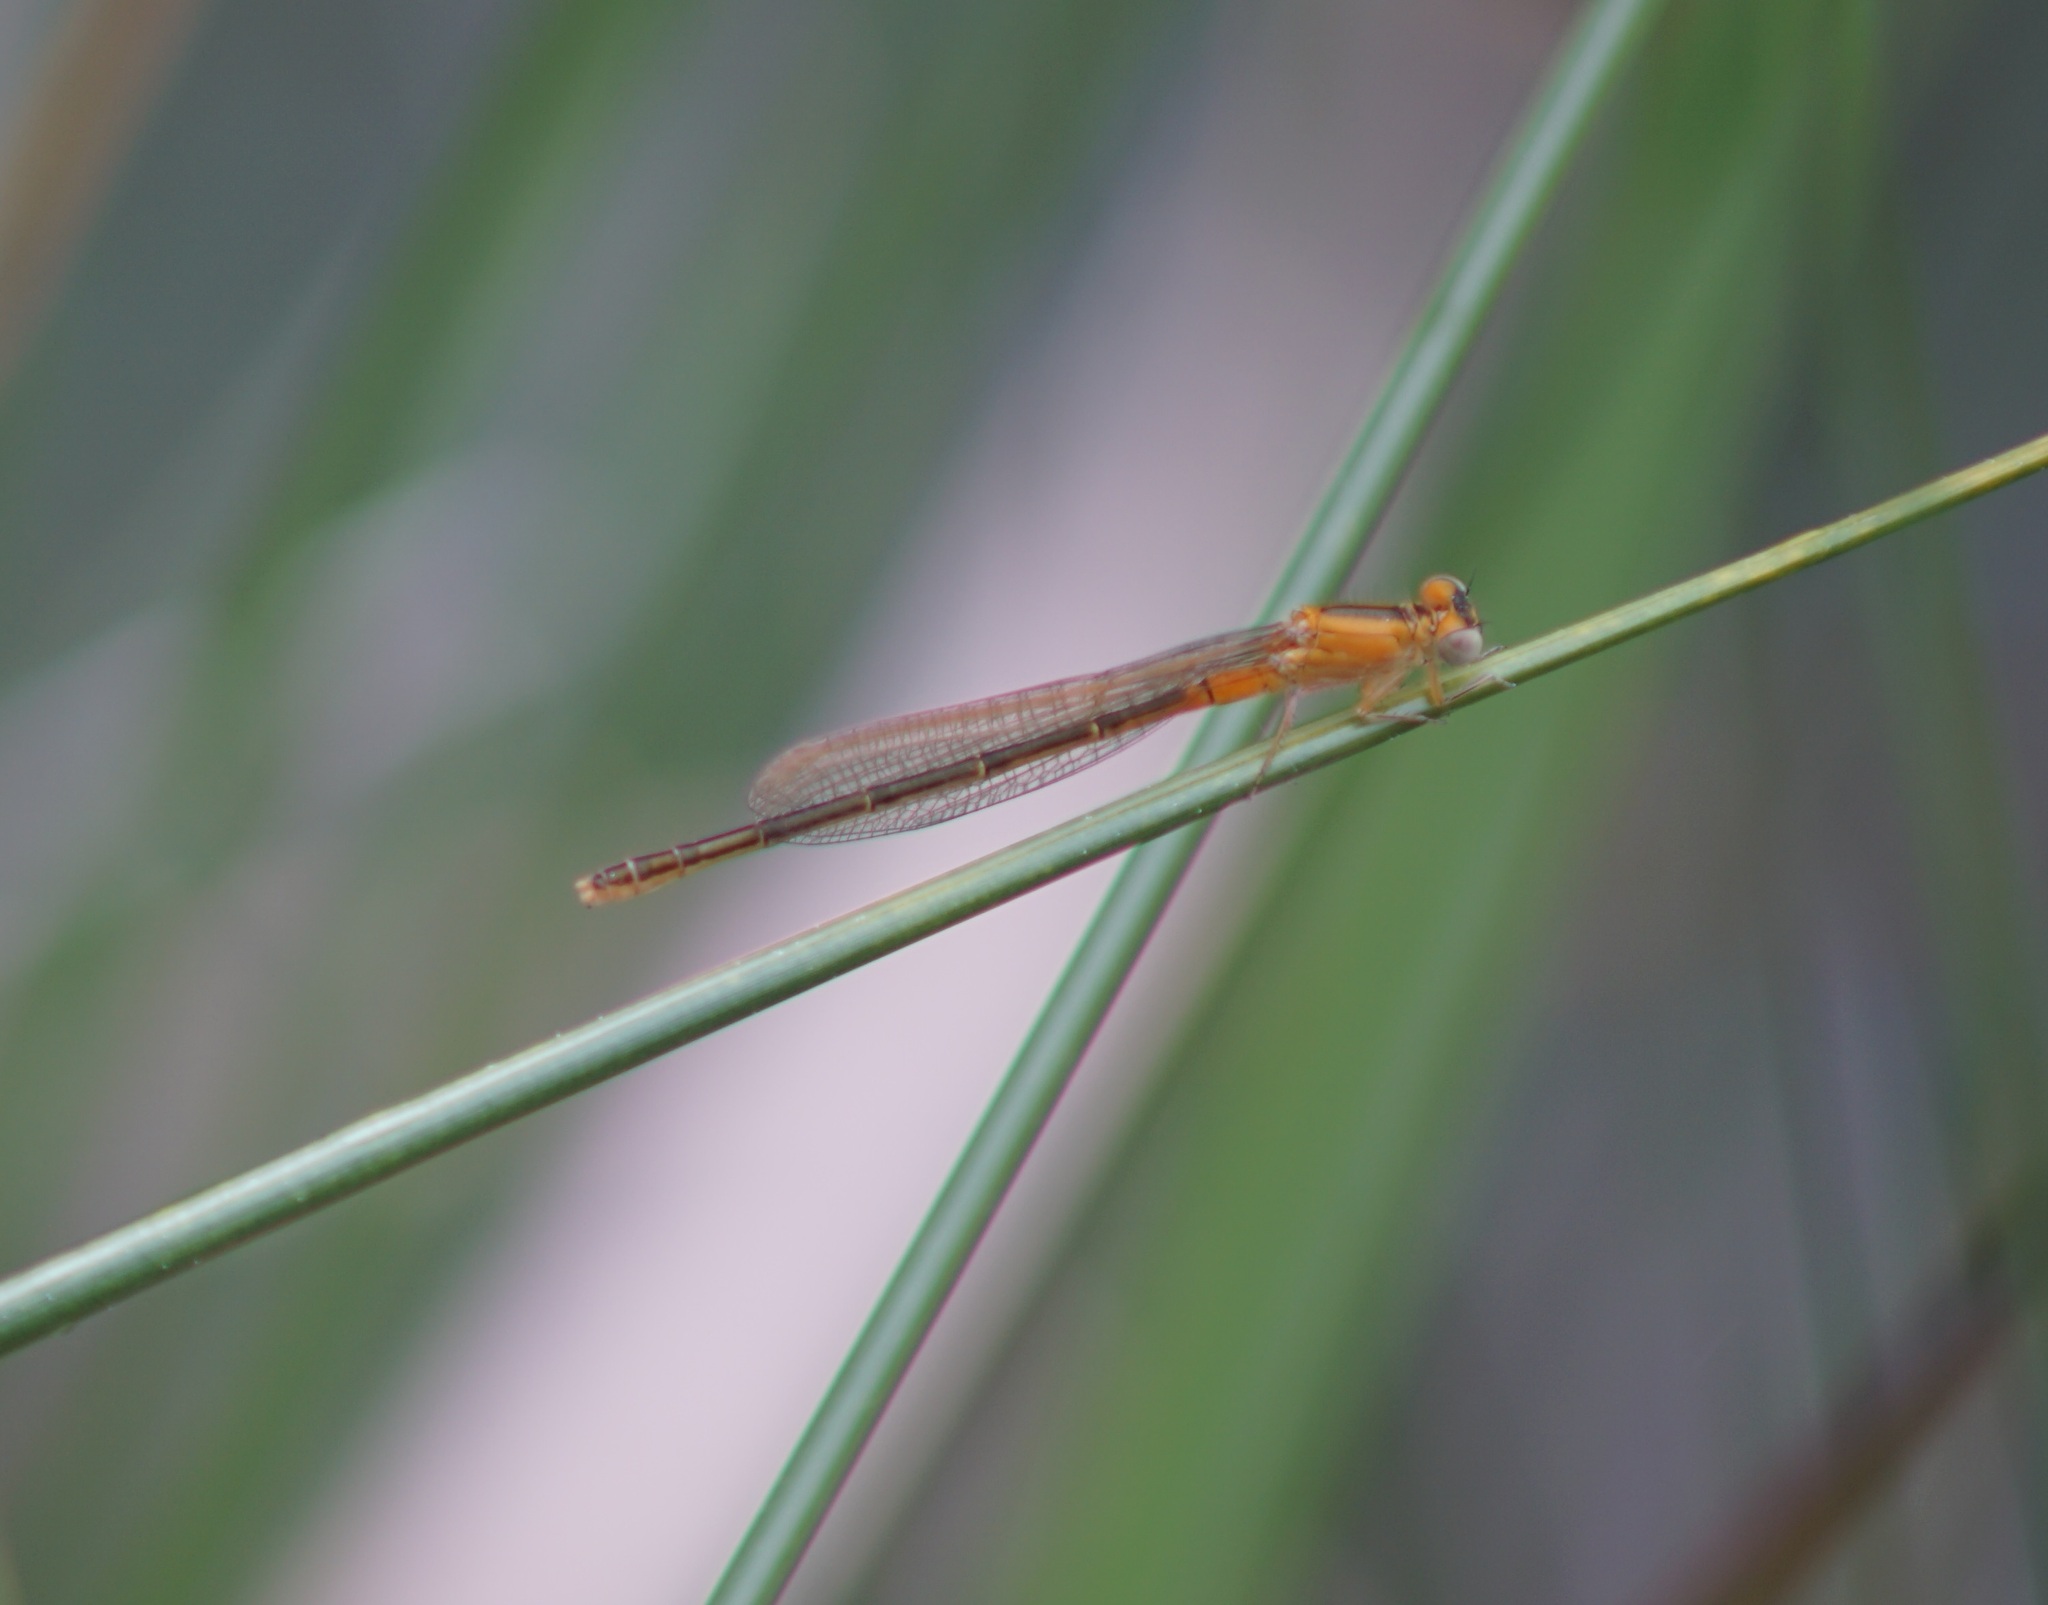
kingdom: Animalia
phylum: Arthropoda
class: Insecta
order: Odonata
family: Coenagrionidae
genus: Ischnura
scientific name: Ischnura pumilio
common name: Scarce blue-tailed damselfly
